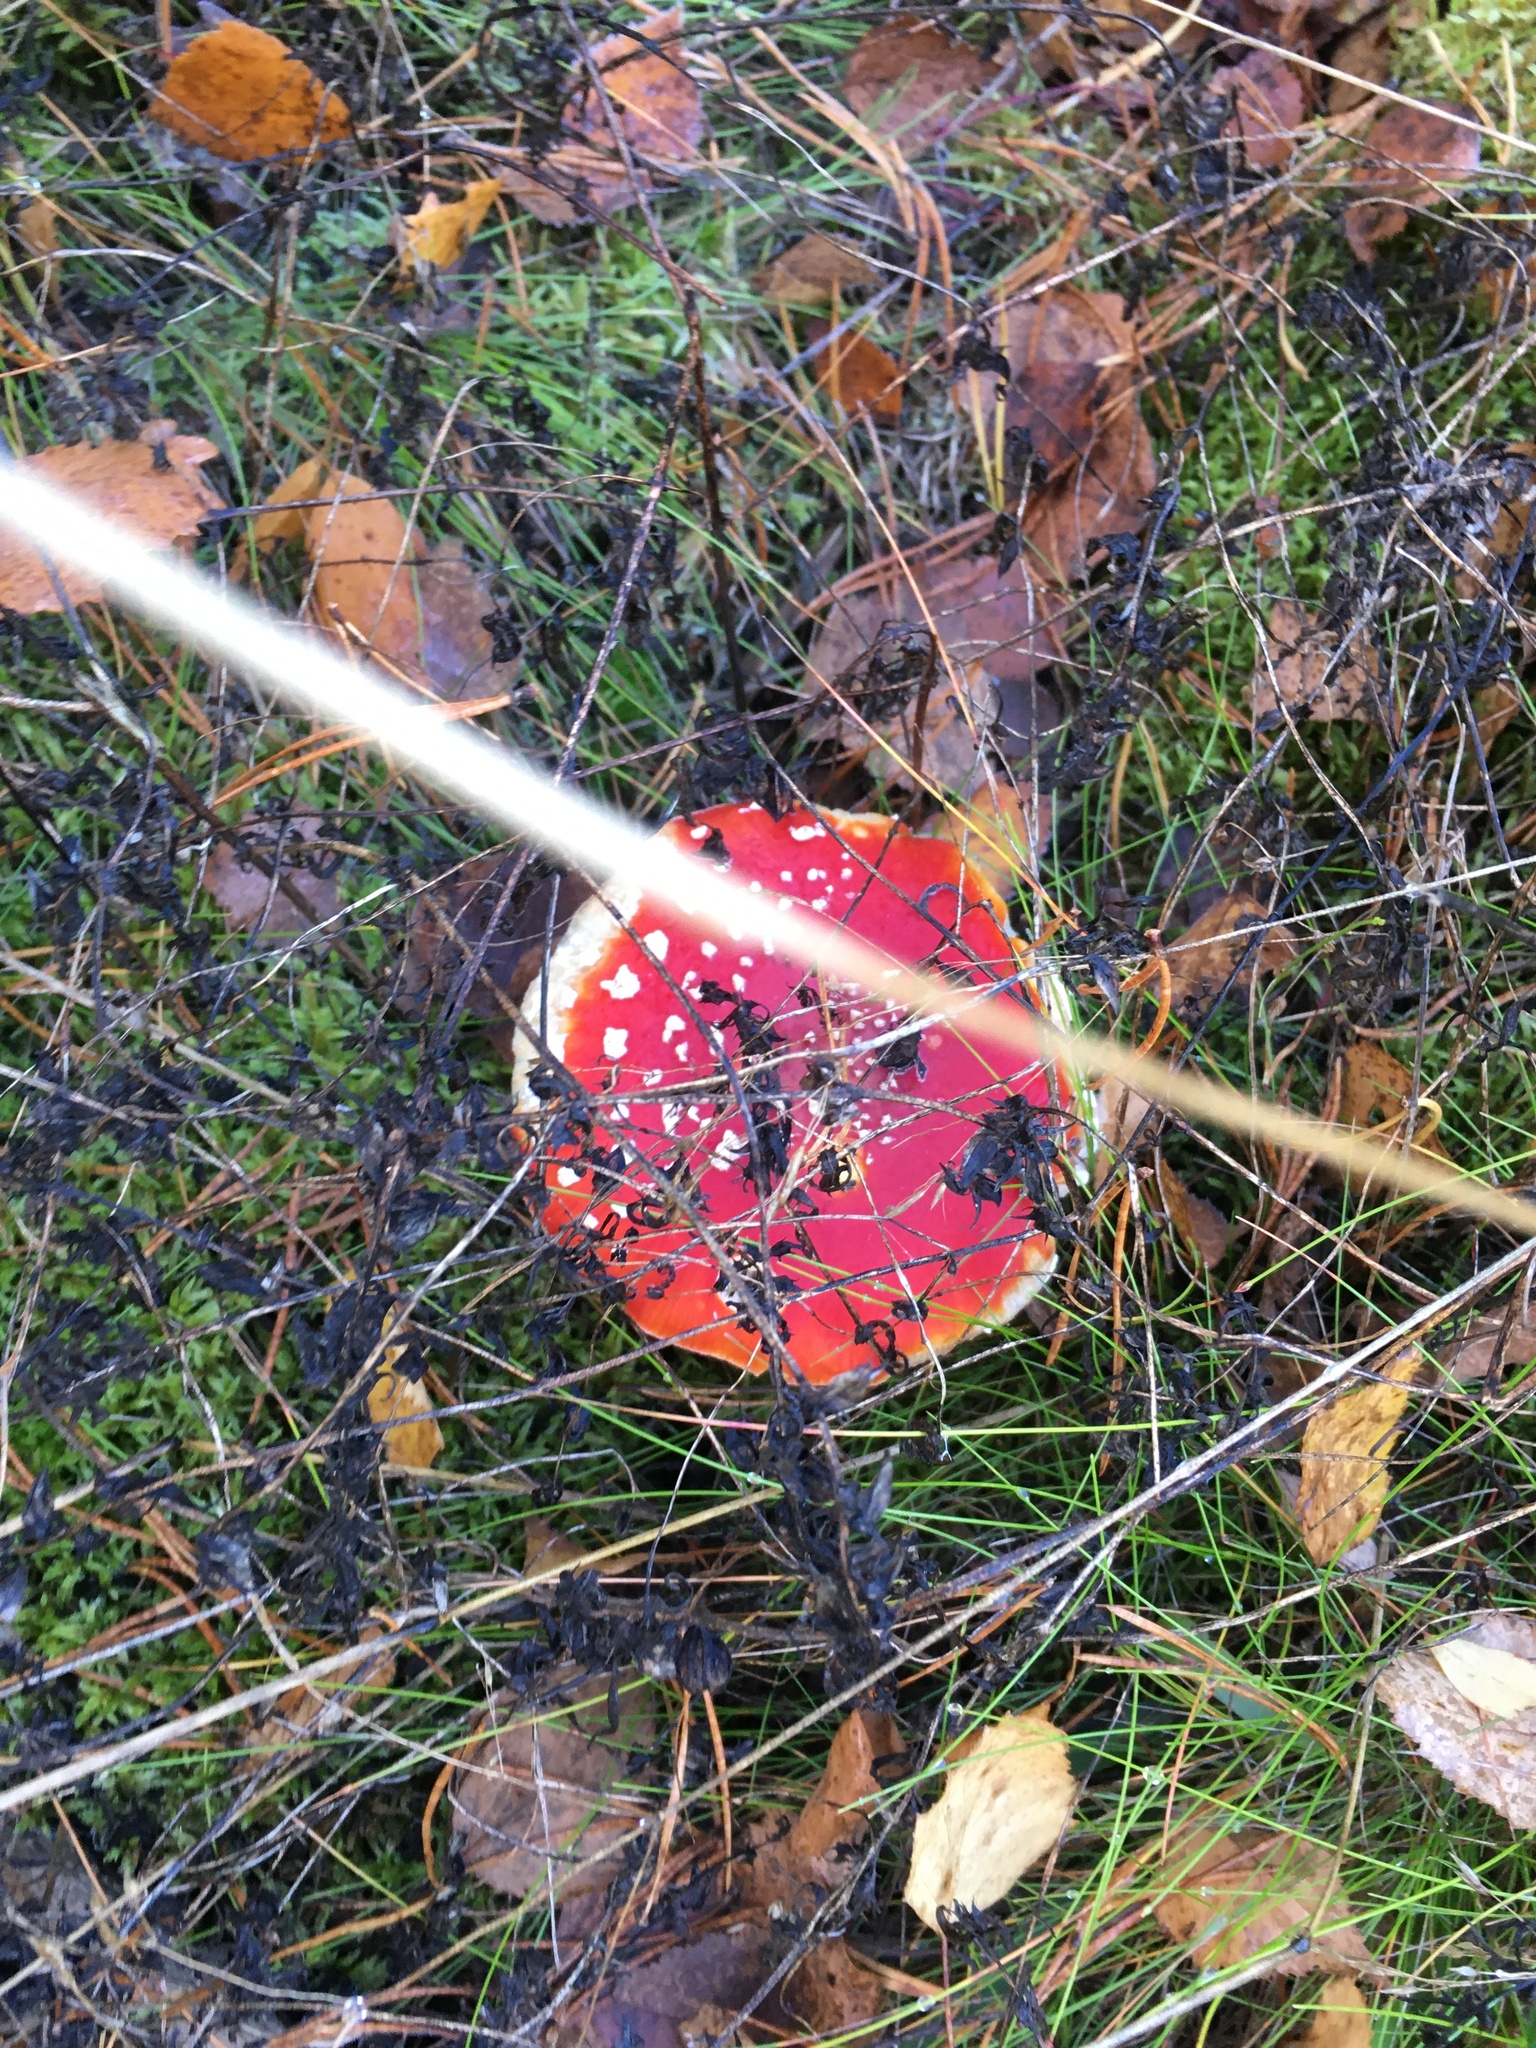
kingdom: Fungi
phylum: Basidiomycota
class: Agaricomycetes
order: Agaricales
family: Amanitaceae
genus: Amanita
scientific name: Amanita muscaria
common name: Fly agaric
